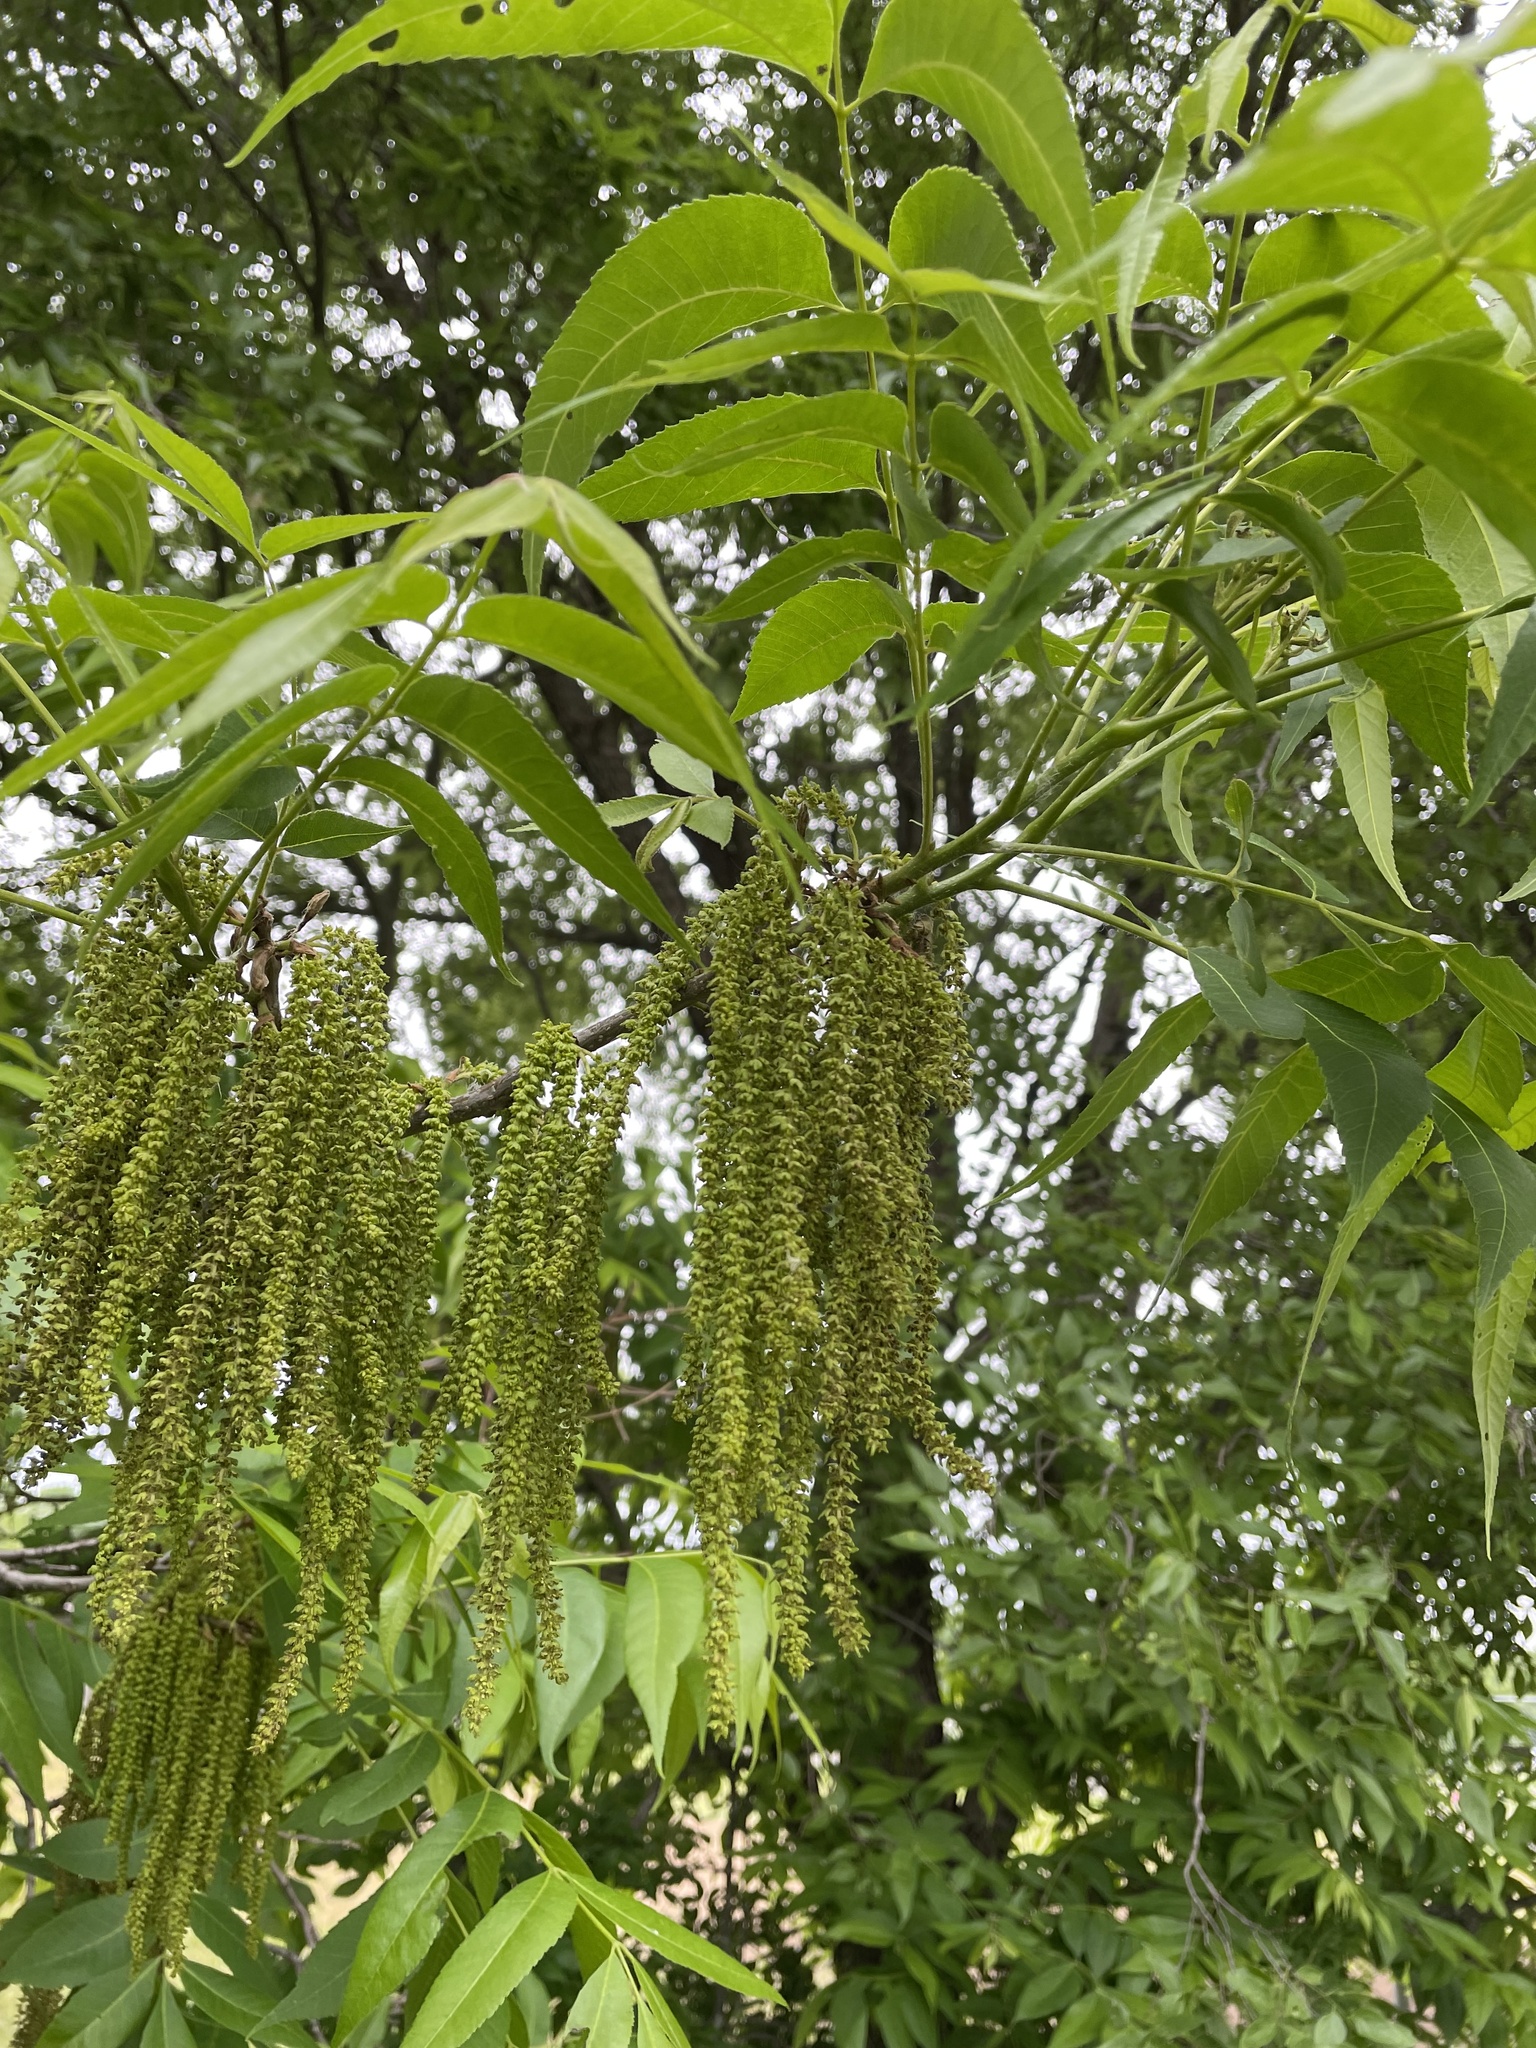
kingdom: Plantae
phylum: Tracheophyta
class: Magnoliopsida
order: Fagales
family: Juglandaceae
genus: Carya
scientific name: Carya illinoinensis
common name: Pecan
